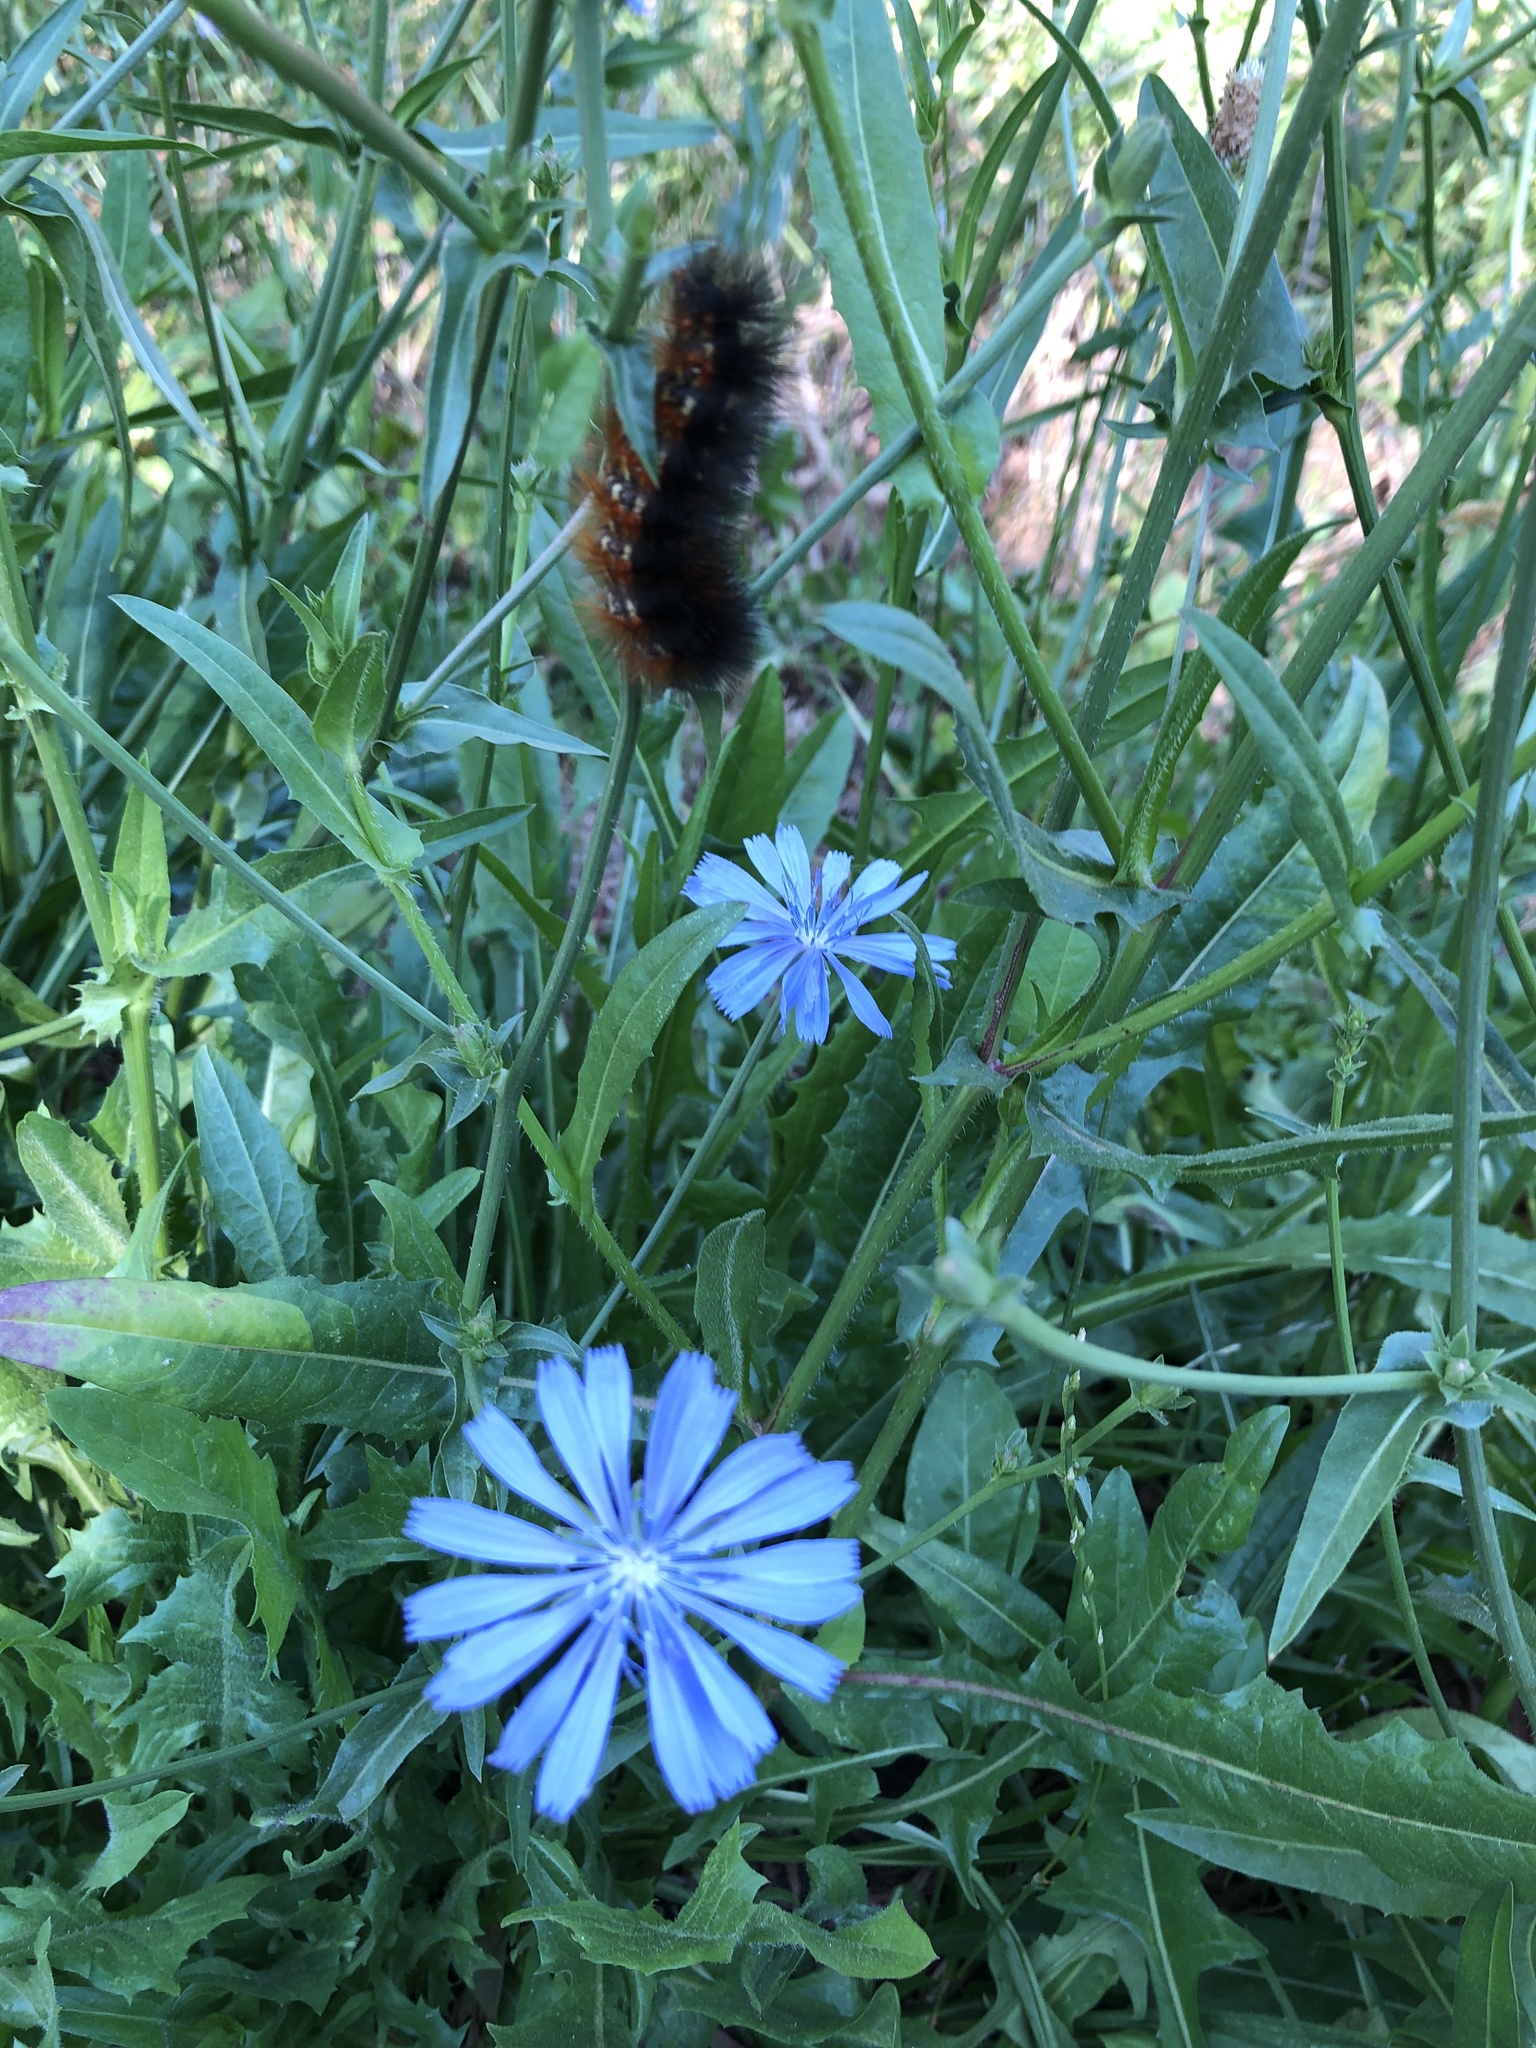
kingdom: Animalia
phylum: Arthropoda
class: Insecta
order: Lepidoptera
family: Erebidae
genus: Estigmene
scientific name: Estigmene acrea
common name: Salt marsh moth
